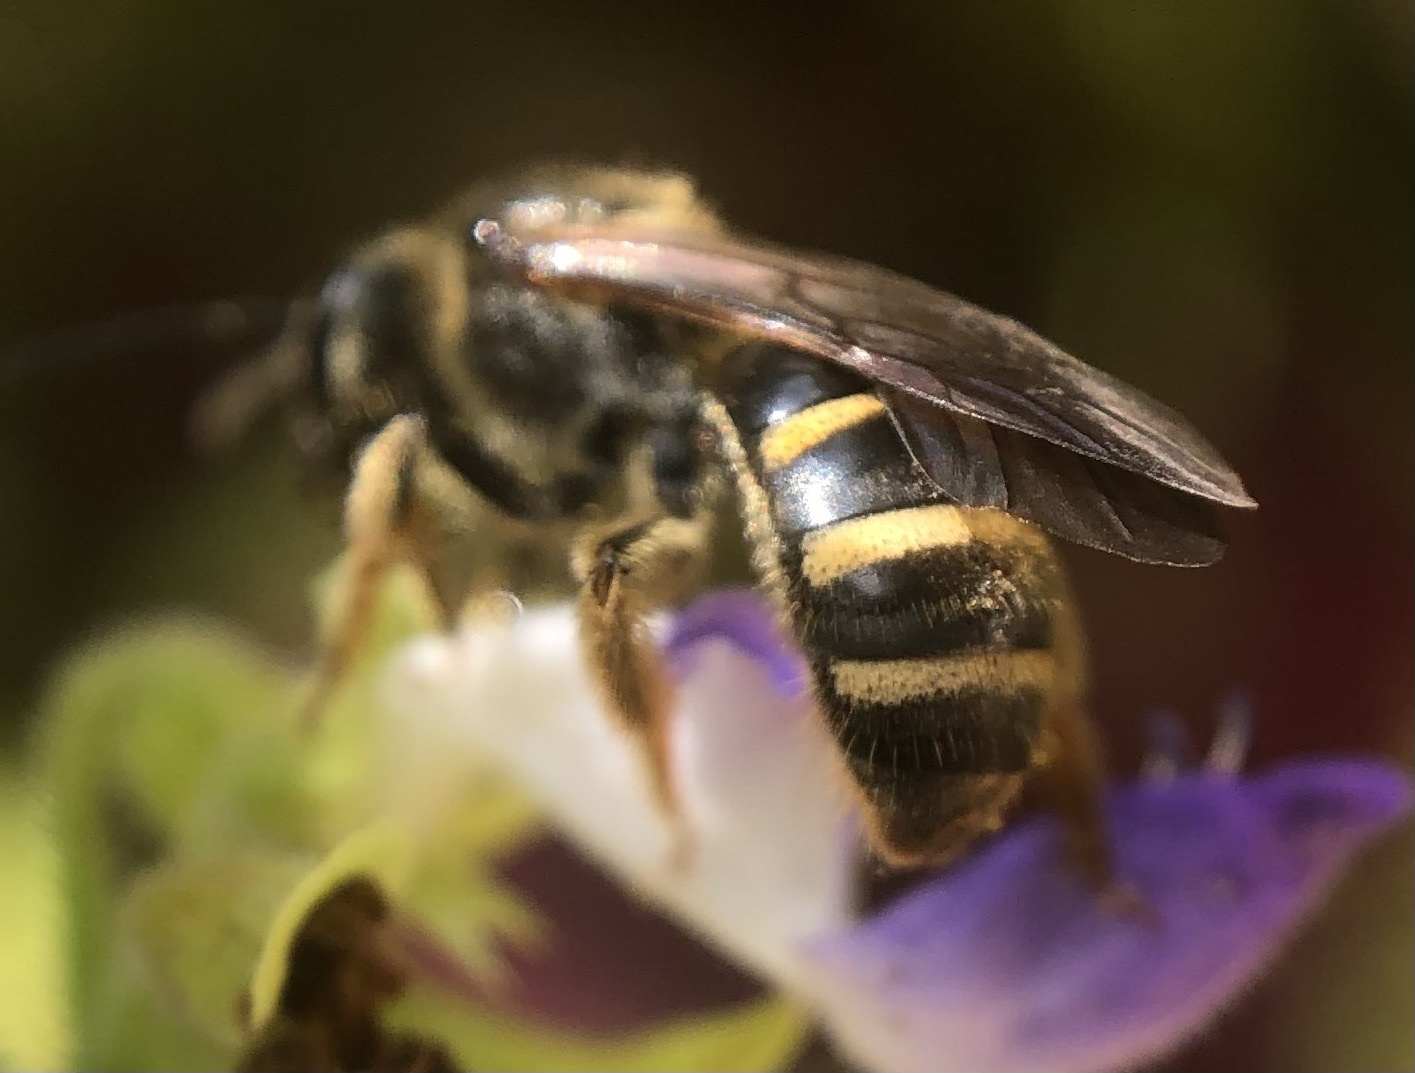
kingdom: Animalia
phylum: Arthropoda
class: Insecta
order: Hymenoptera
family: Halictidae
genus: Lasioglossum
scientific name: Lasioglossum fuscipenne
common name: Brown-winged sweat bee
